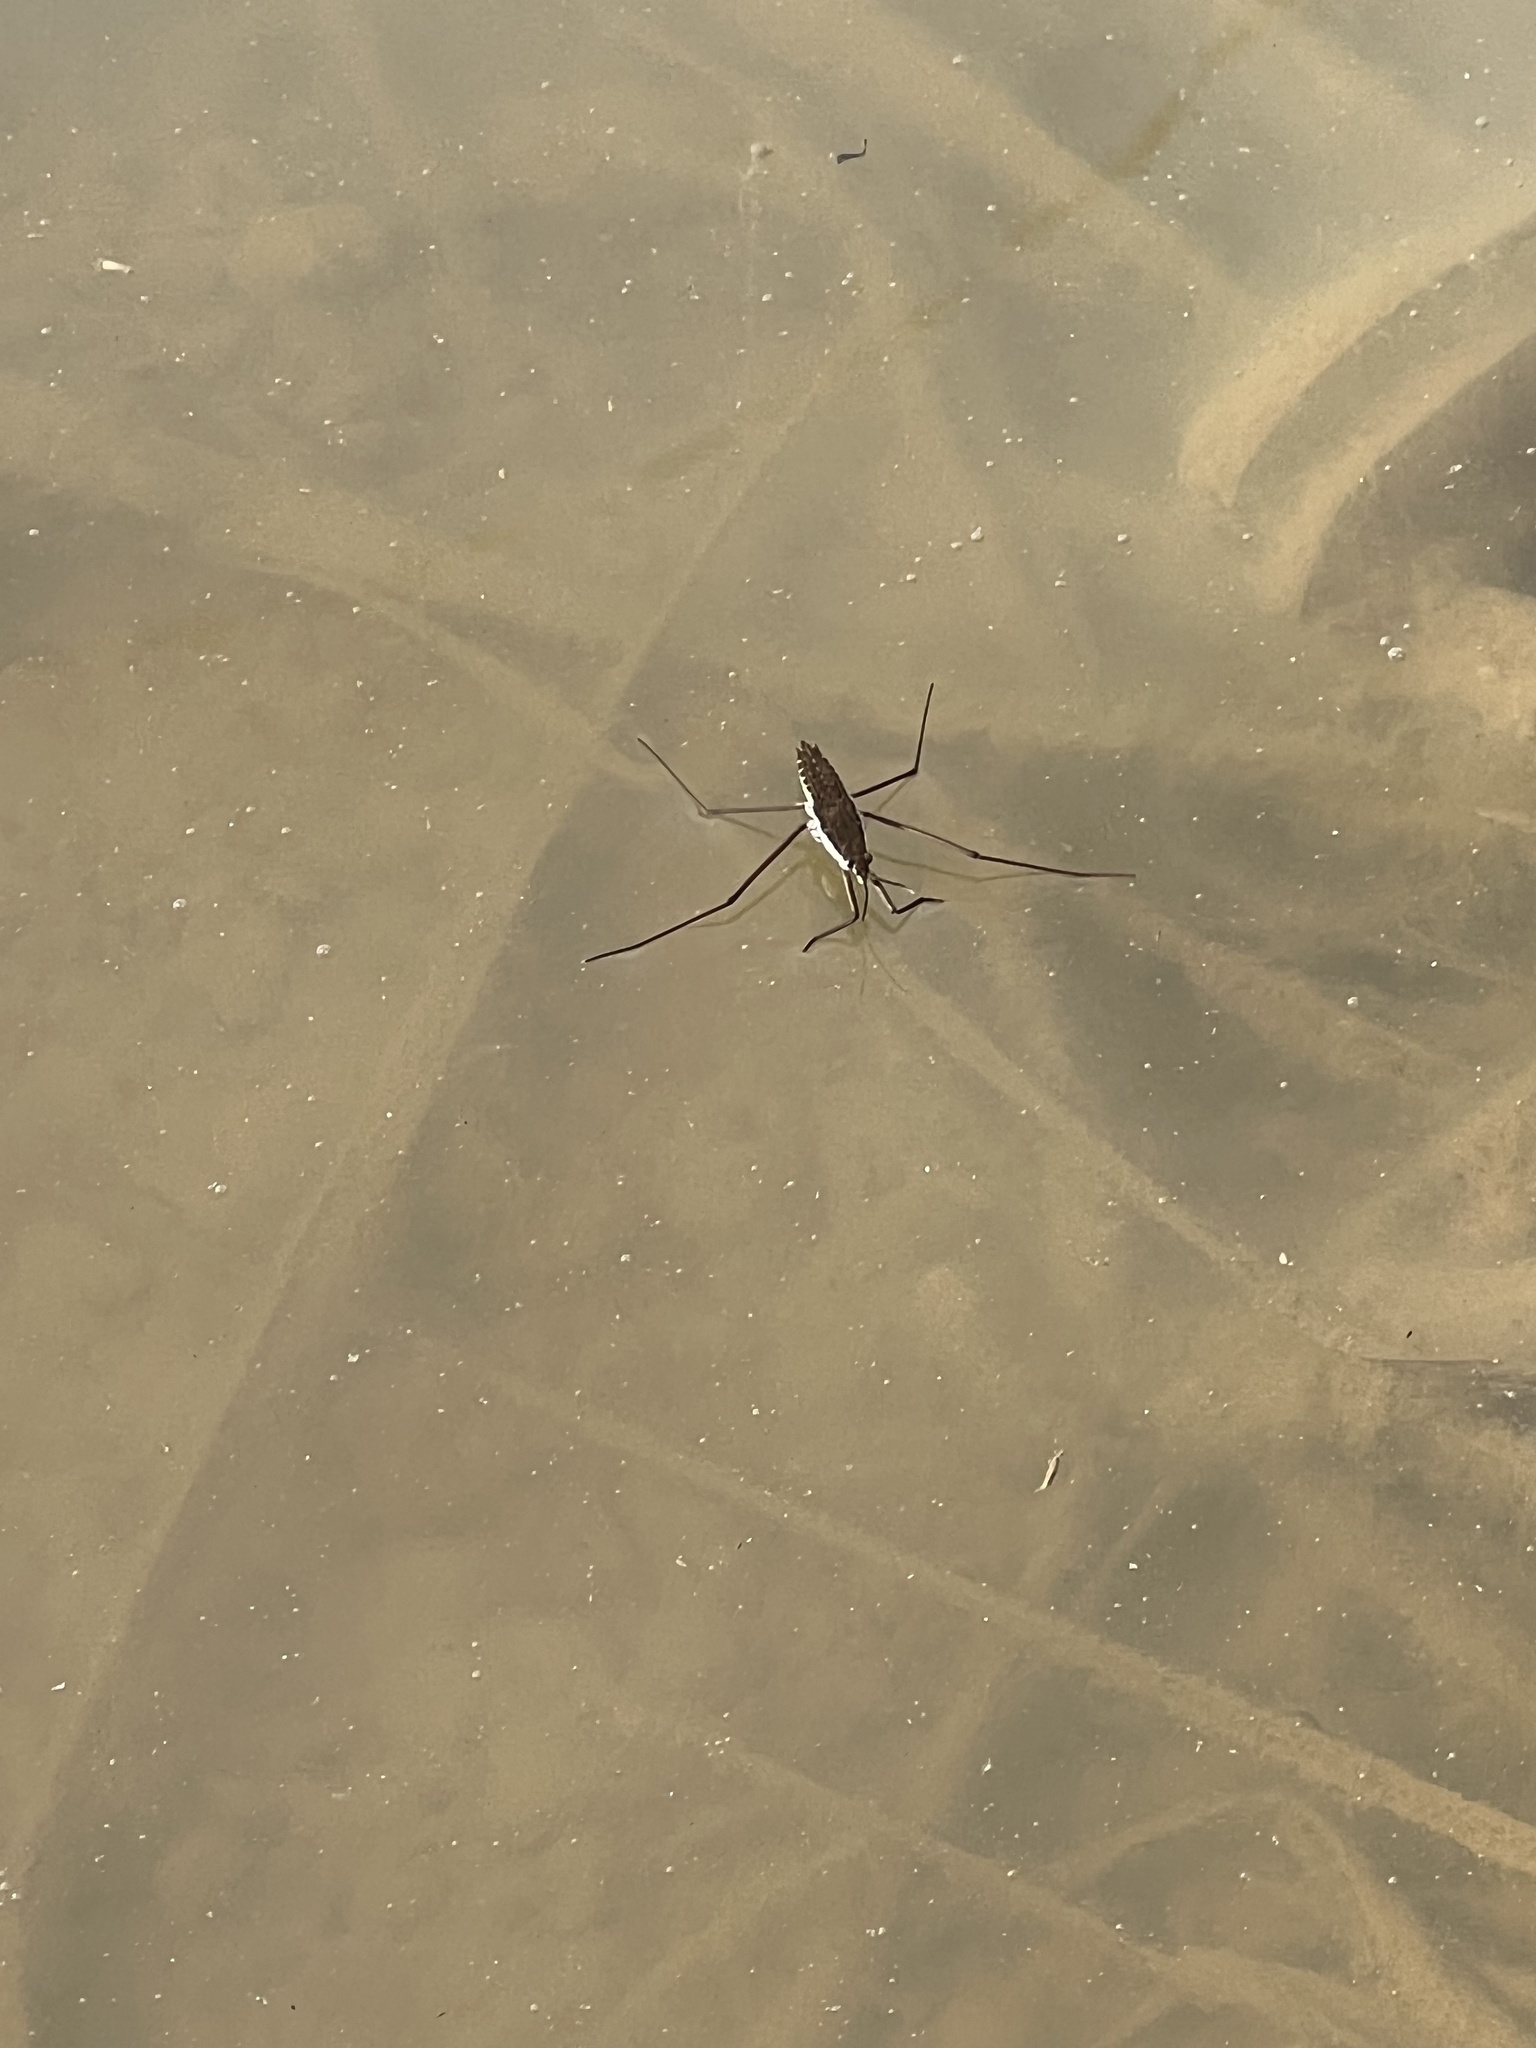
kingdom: Animalia
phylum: Arthropoda
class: Insecta
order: Hemiptera
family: Gerridae
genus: Aquarius
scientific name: Aquarius remigis
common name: Common water strider
